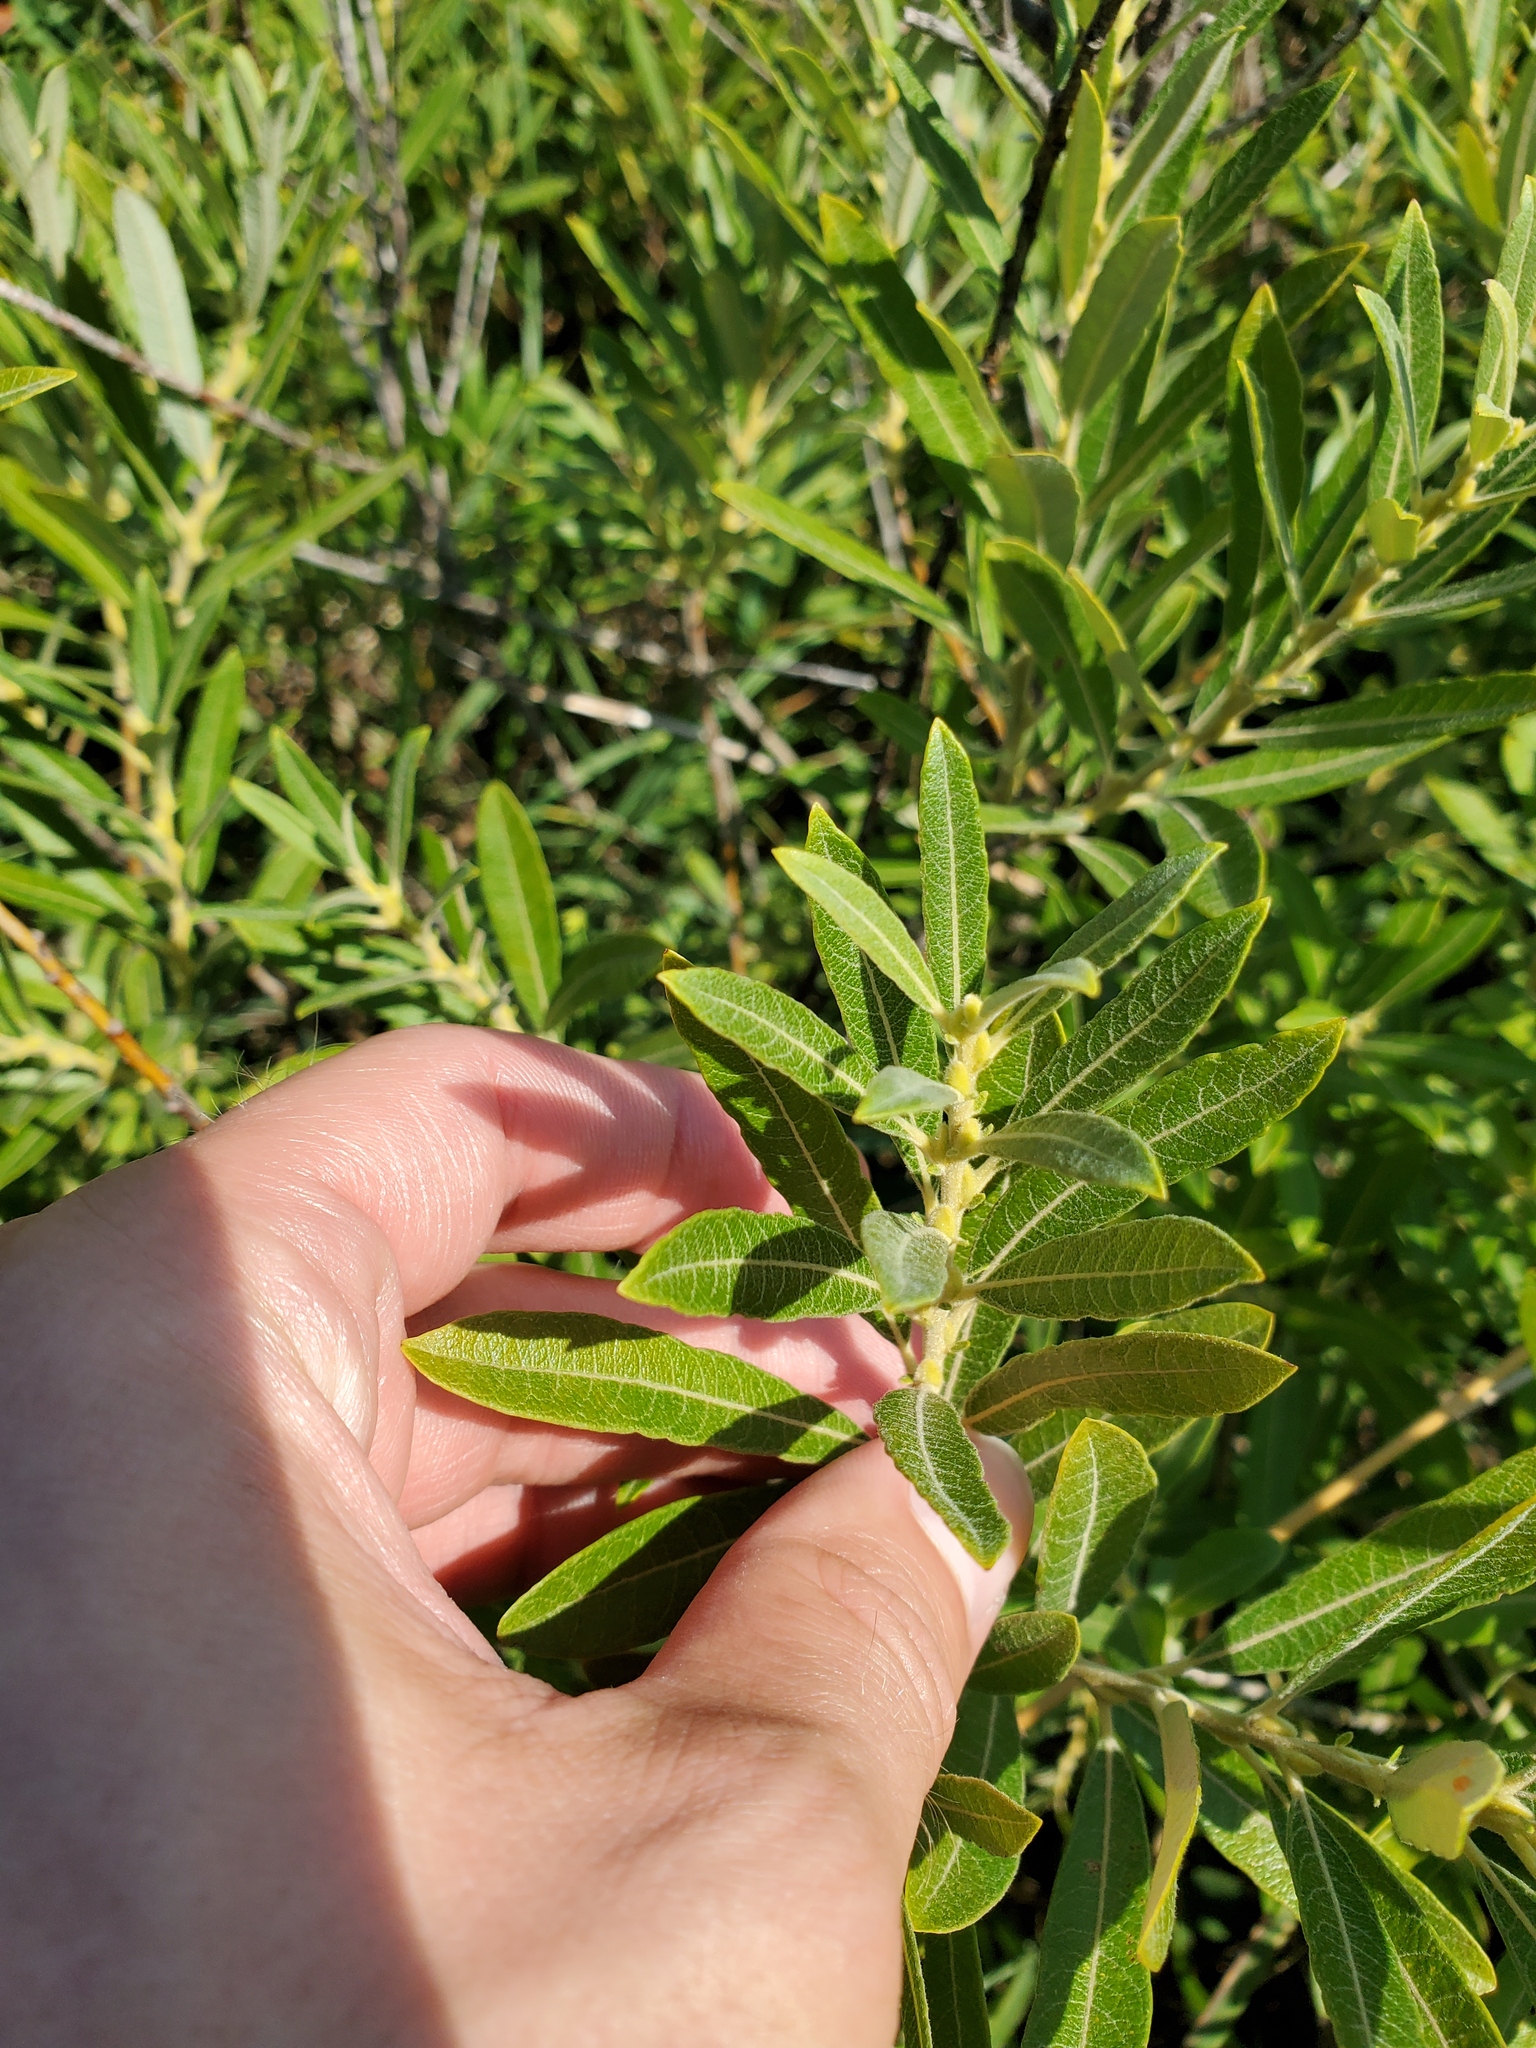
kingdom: Plantae
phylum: Tracheophyta
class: Magnoliopsida
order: Malpighiales
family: Salicaceae
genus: Salix
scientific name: Salix humilis
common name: Prairie willow
